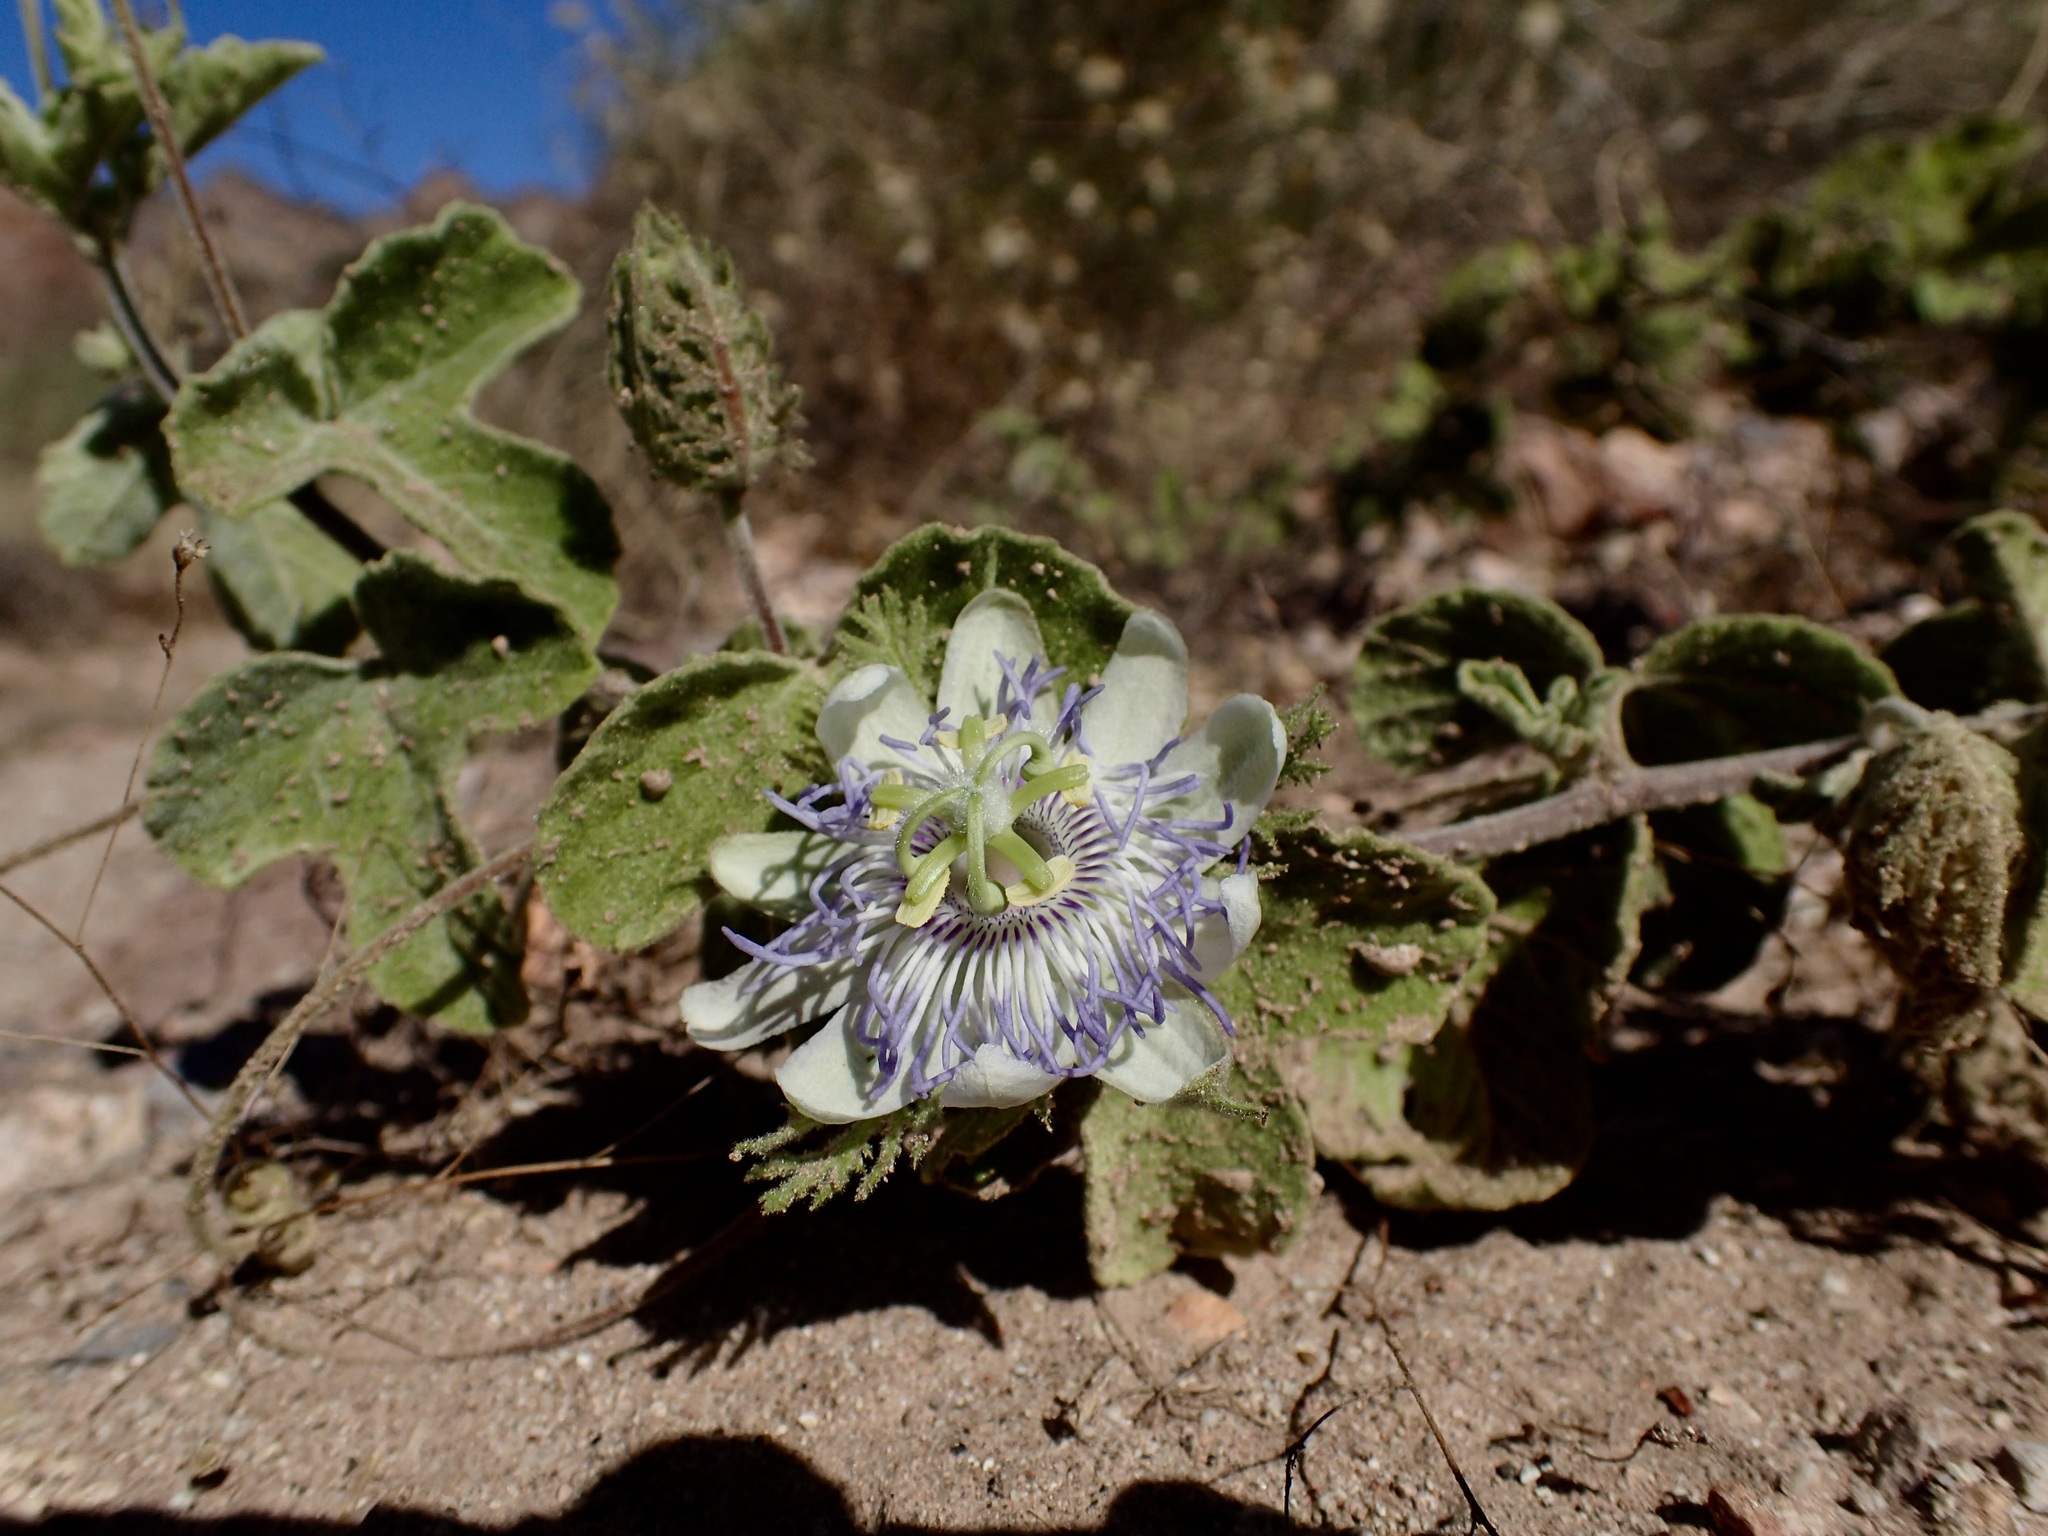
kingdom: Plantae
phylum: Tracheophyta
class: Magnoliopsida
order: Malpighiales
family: Passifloraceae
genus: Passiflora
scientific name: Passiflora arida
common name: Desert passionflower
